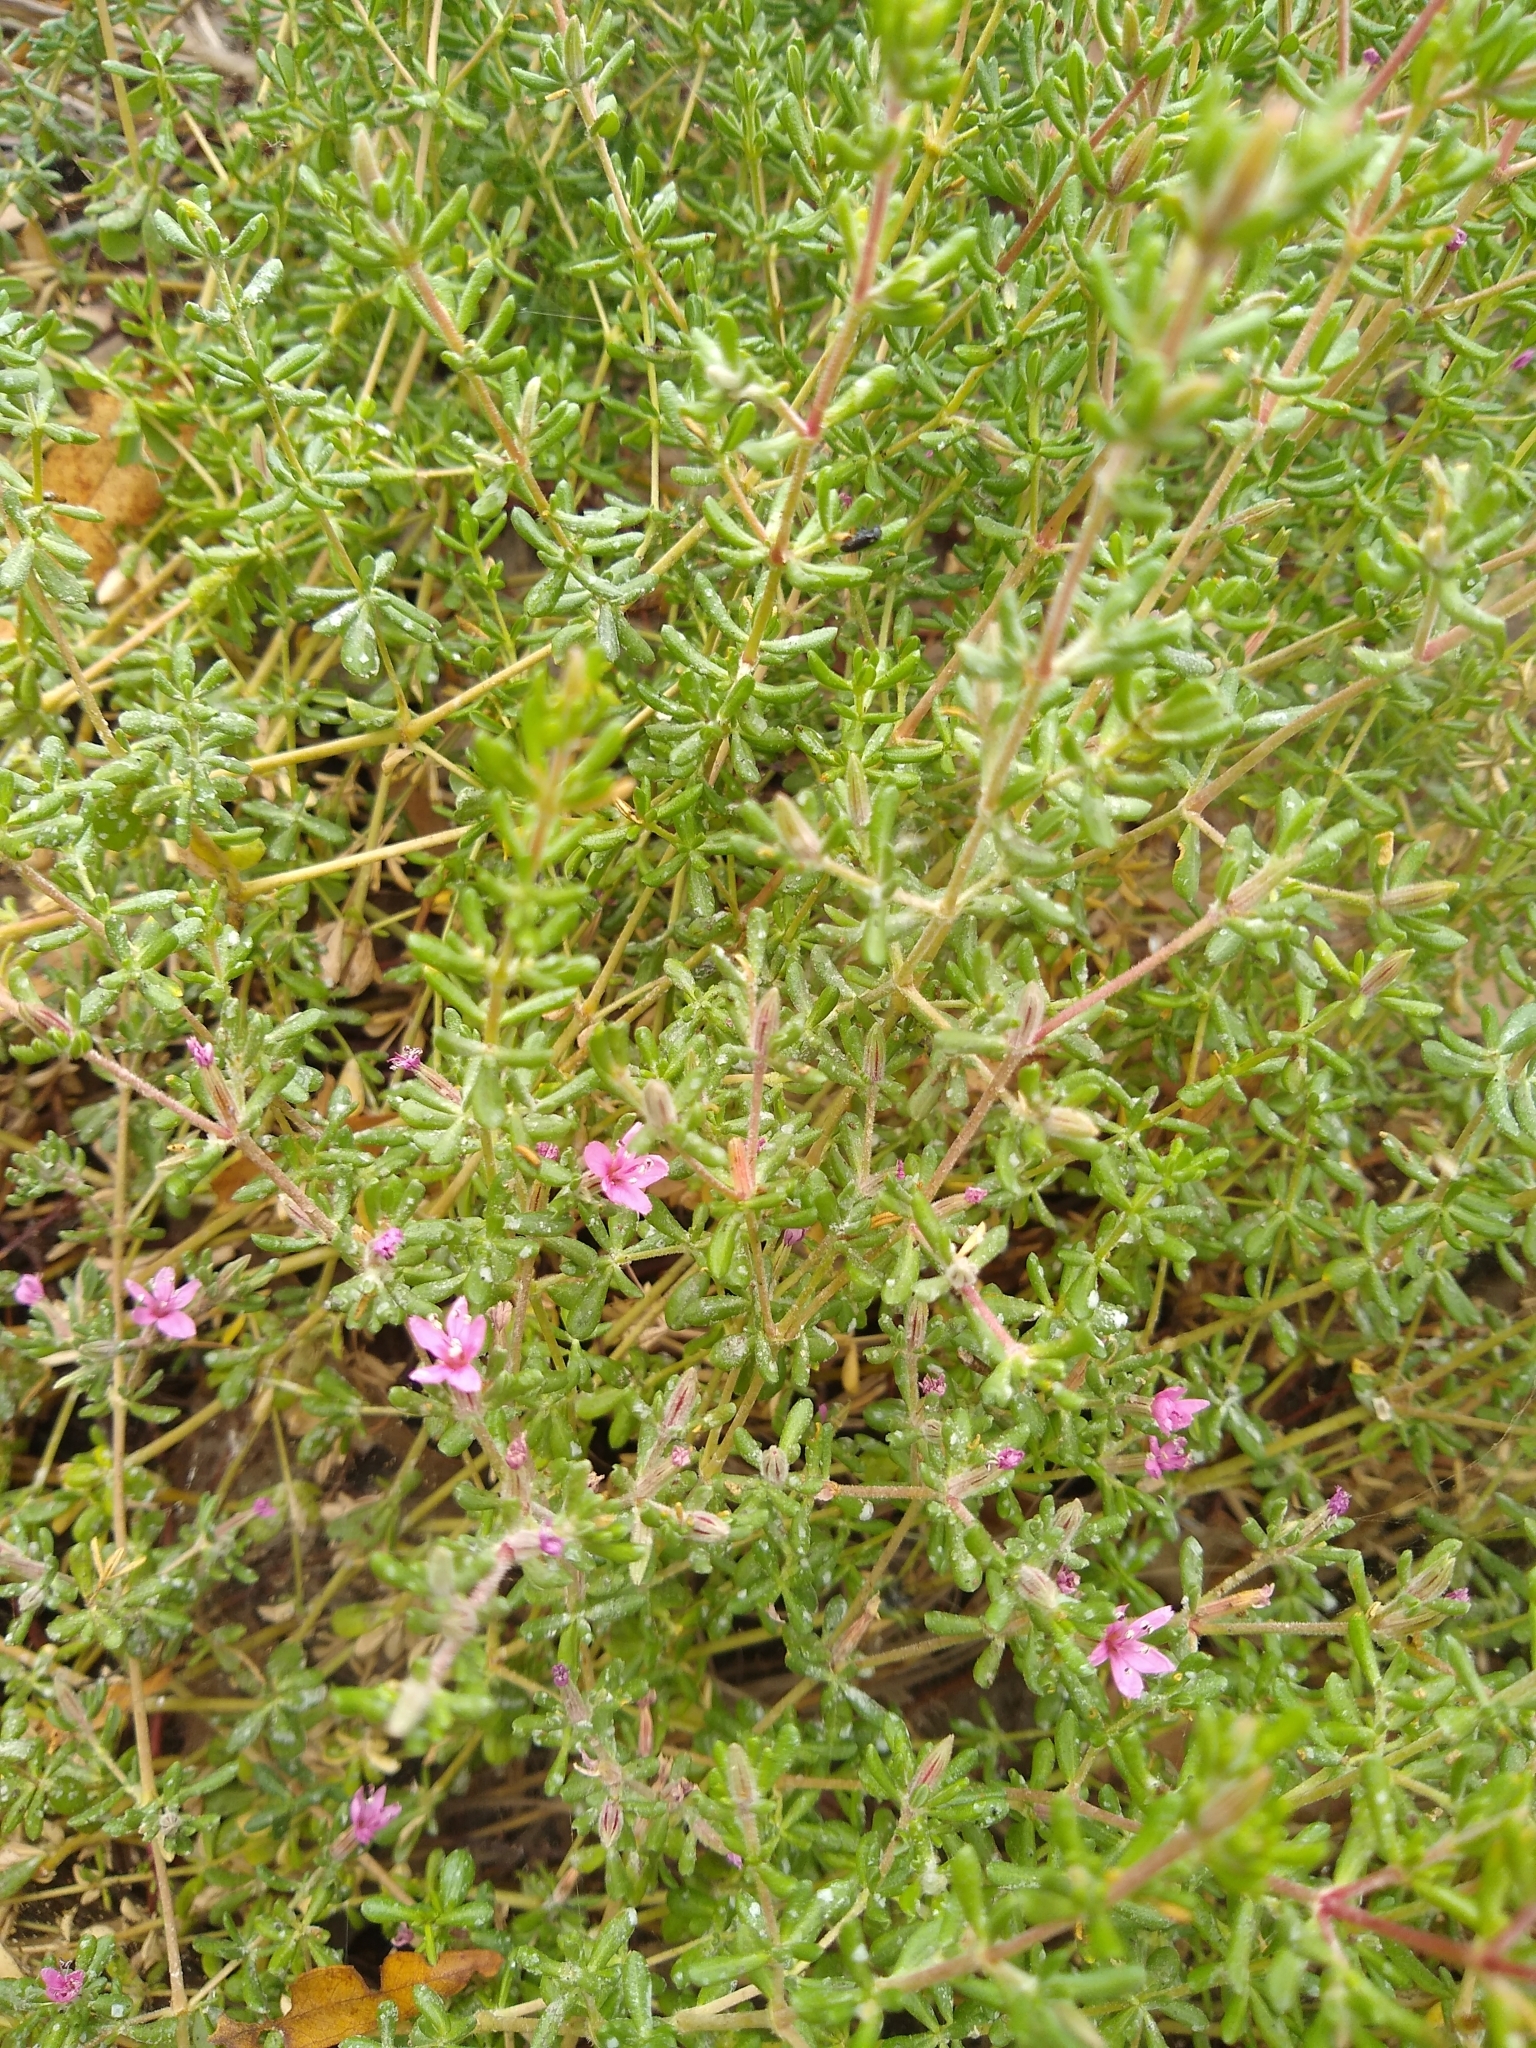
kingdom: Plantae
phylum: Tracheophyta
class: Magnoliopsida
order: Caryophyllales
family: Frankeniaceae
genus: Frankenia
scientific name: Frankenia salina
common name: Alkali seaheath
